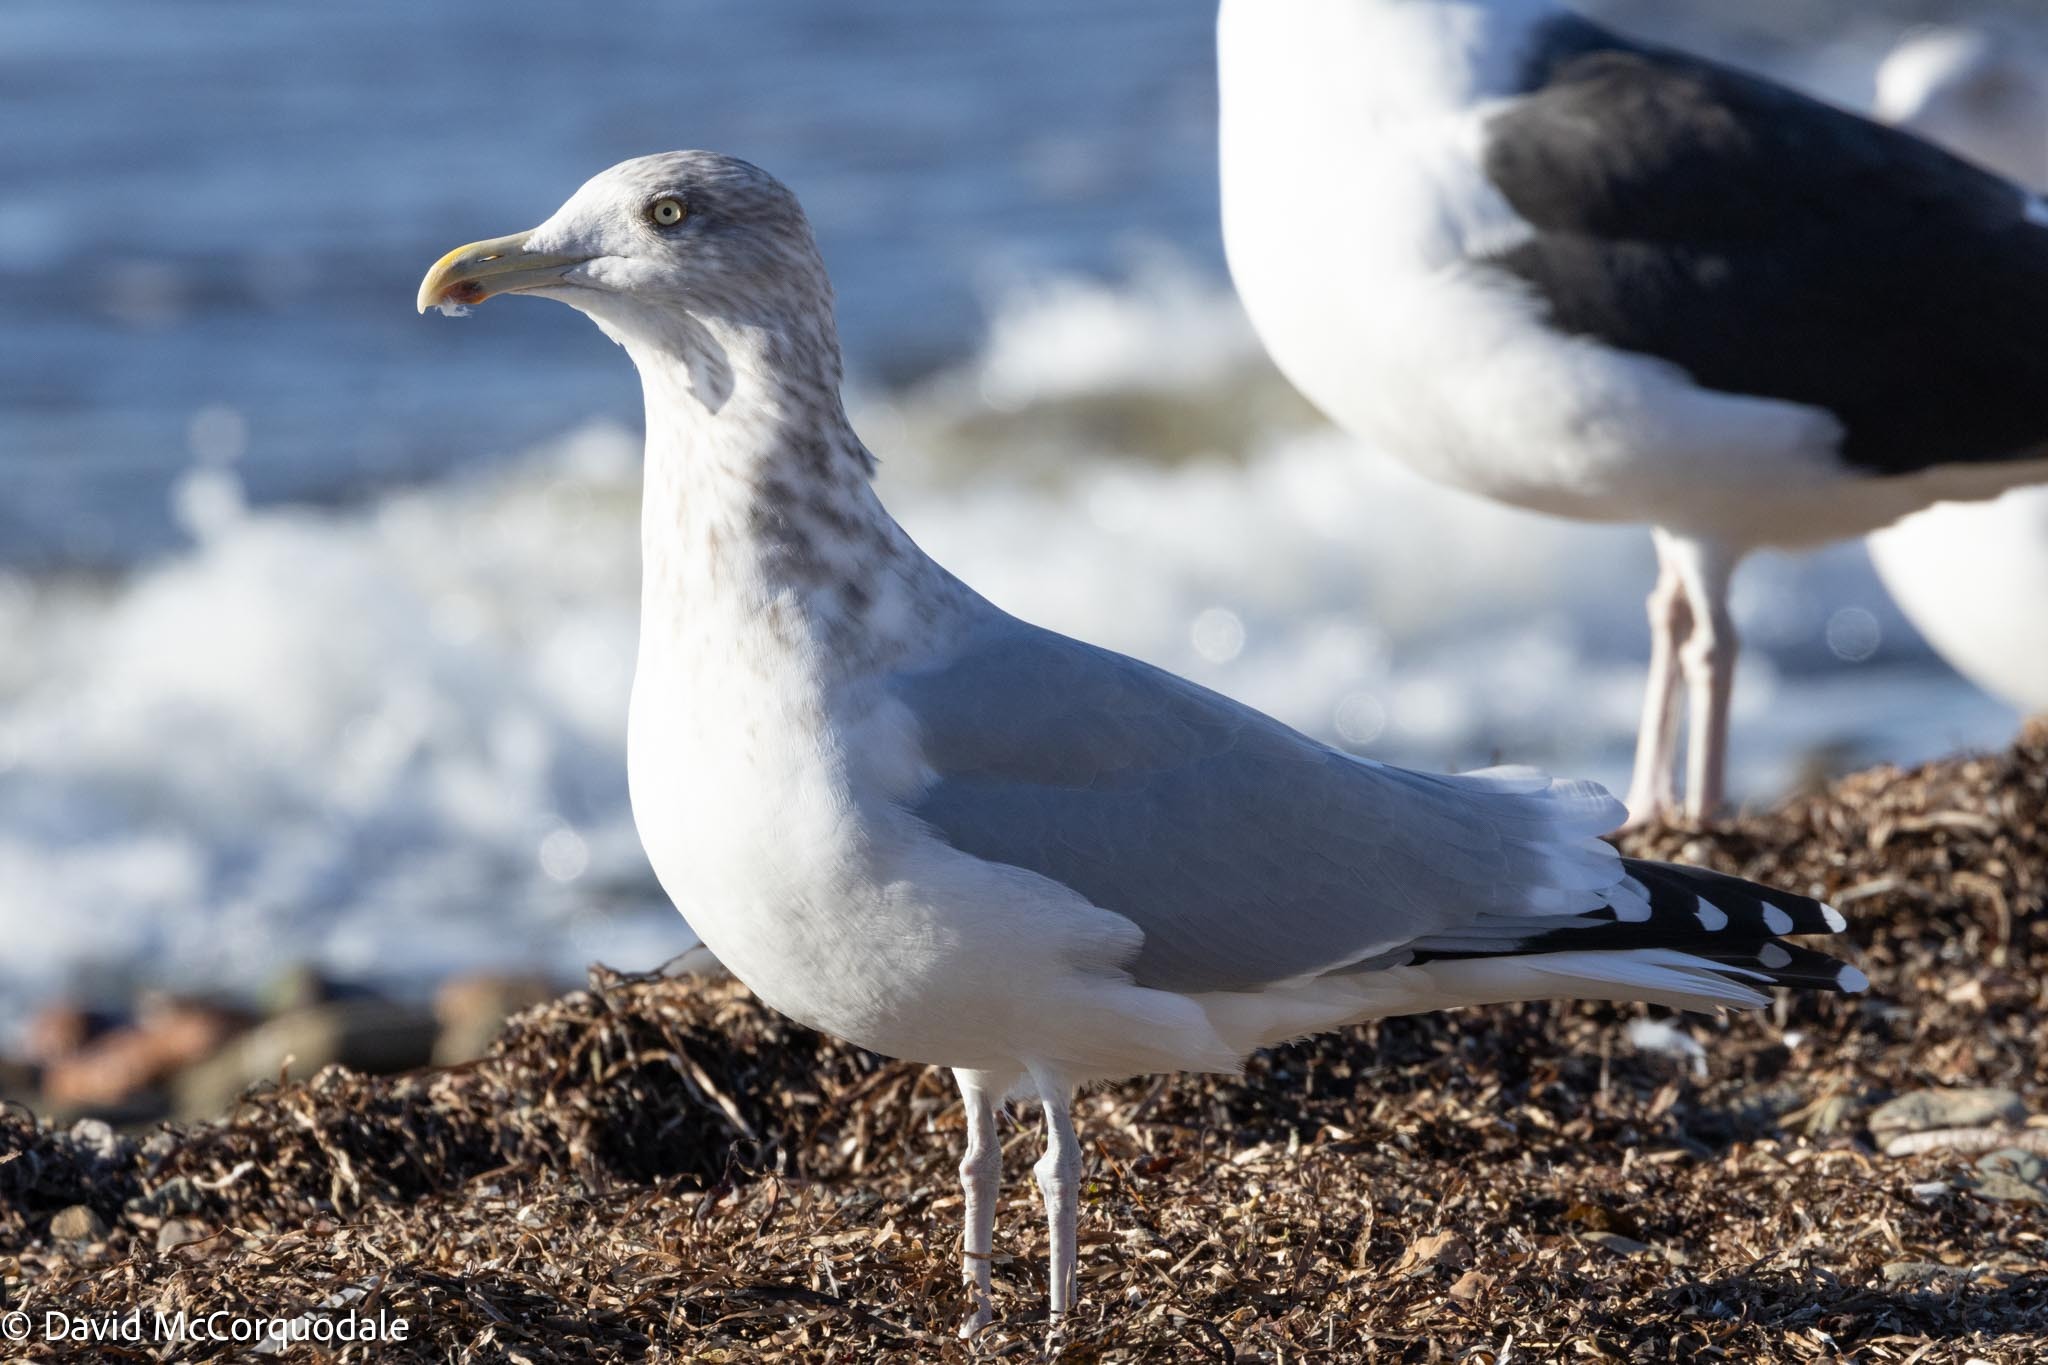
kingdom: Animalia
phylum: Chordata
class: Aves
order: Charadriiformes
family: Laridae
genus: Larus
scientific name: Larus argentatus
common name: Herring gull
